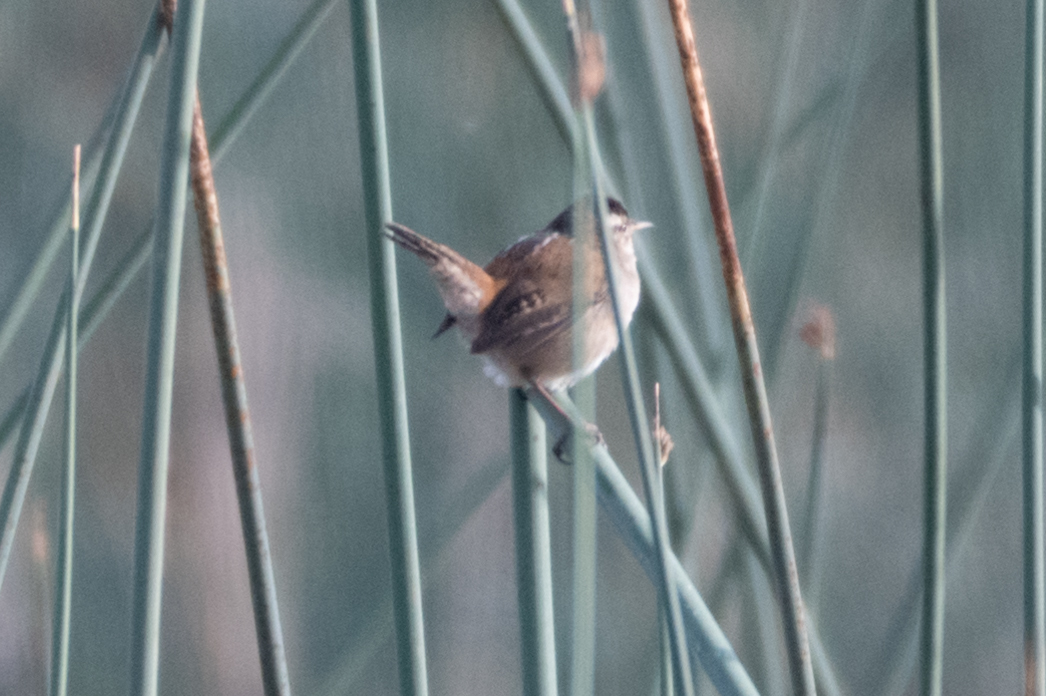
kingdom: Animalia
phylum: Chordata
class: Aves
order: Passeriformes
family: Troglodytidae
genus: Cistothorus
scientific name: Cistothorus palustris
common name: Marsh wren
